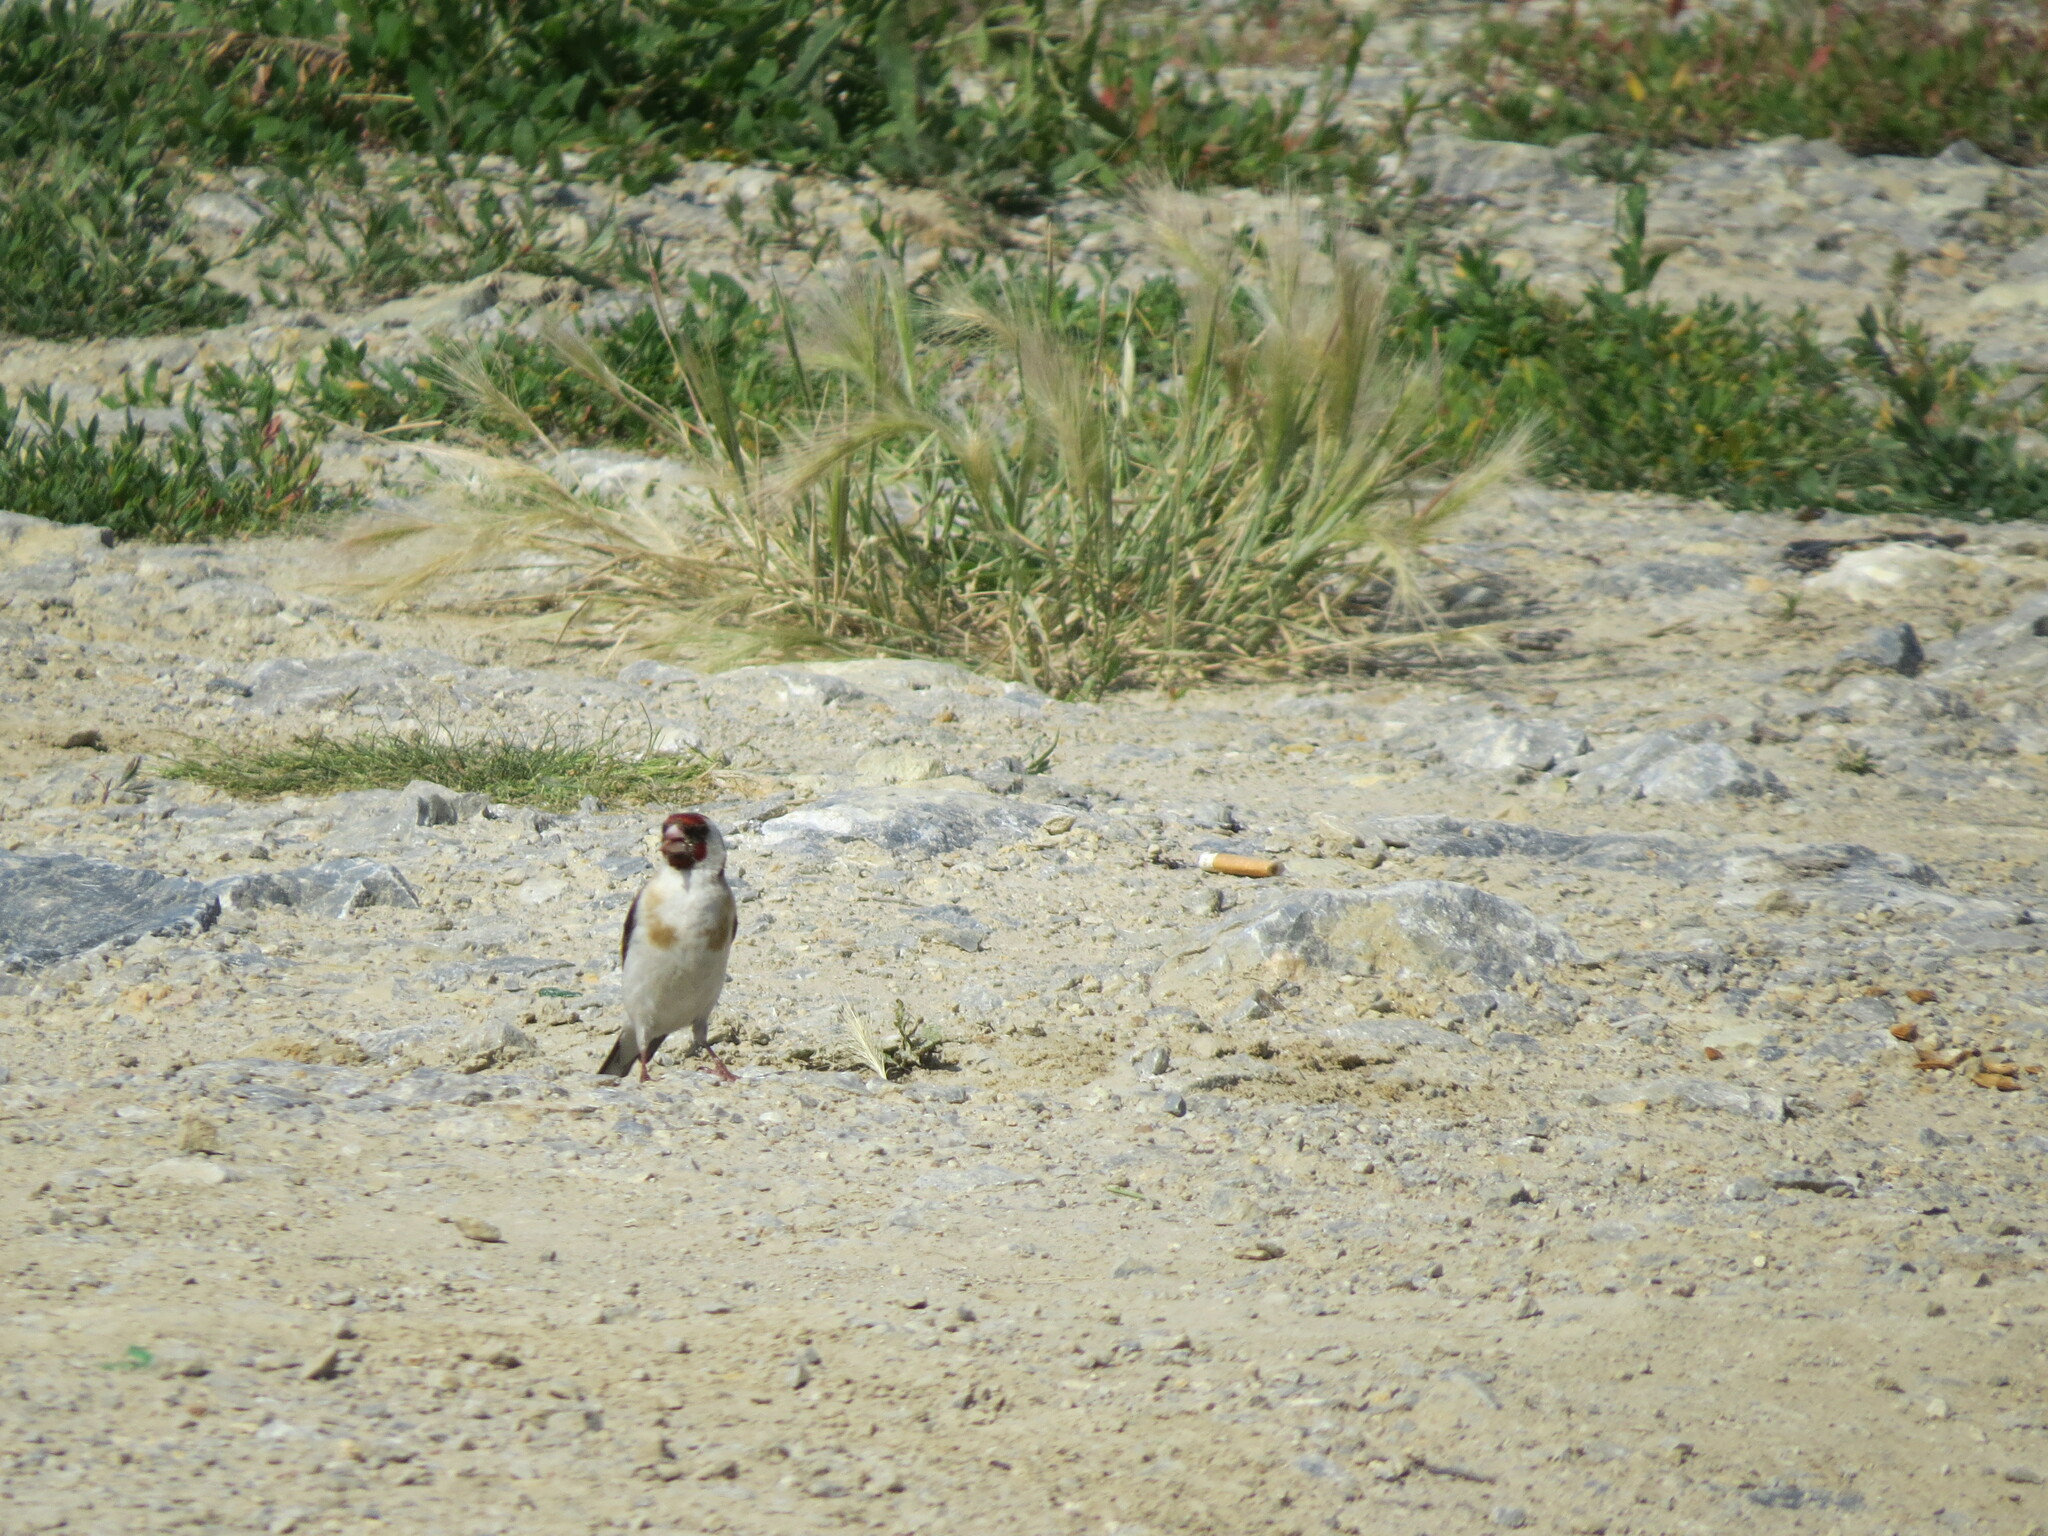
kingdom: Animalia
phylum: Chordata
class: Aves
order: Passeriformes
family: Fringillidae
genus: Carduelis
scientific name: Carduelis carduelis
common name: European goldfinch
